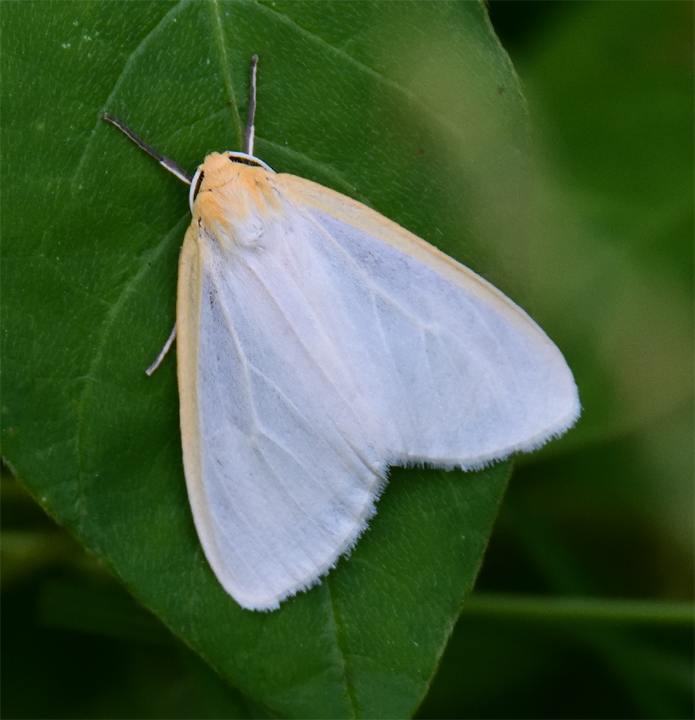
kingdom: Animalia
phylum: Arthropoda
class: Insecta
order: Lepidoptera
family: Erebidae
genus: Cycnia
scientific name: Cycnia tenera
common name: Delicate cycnia moth
